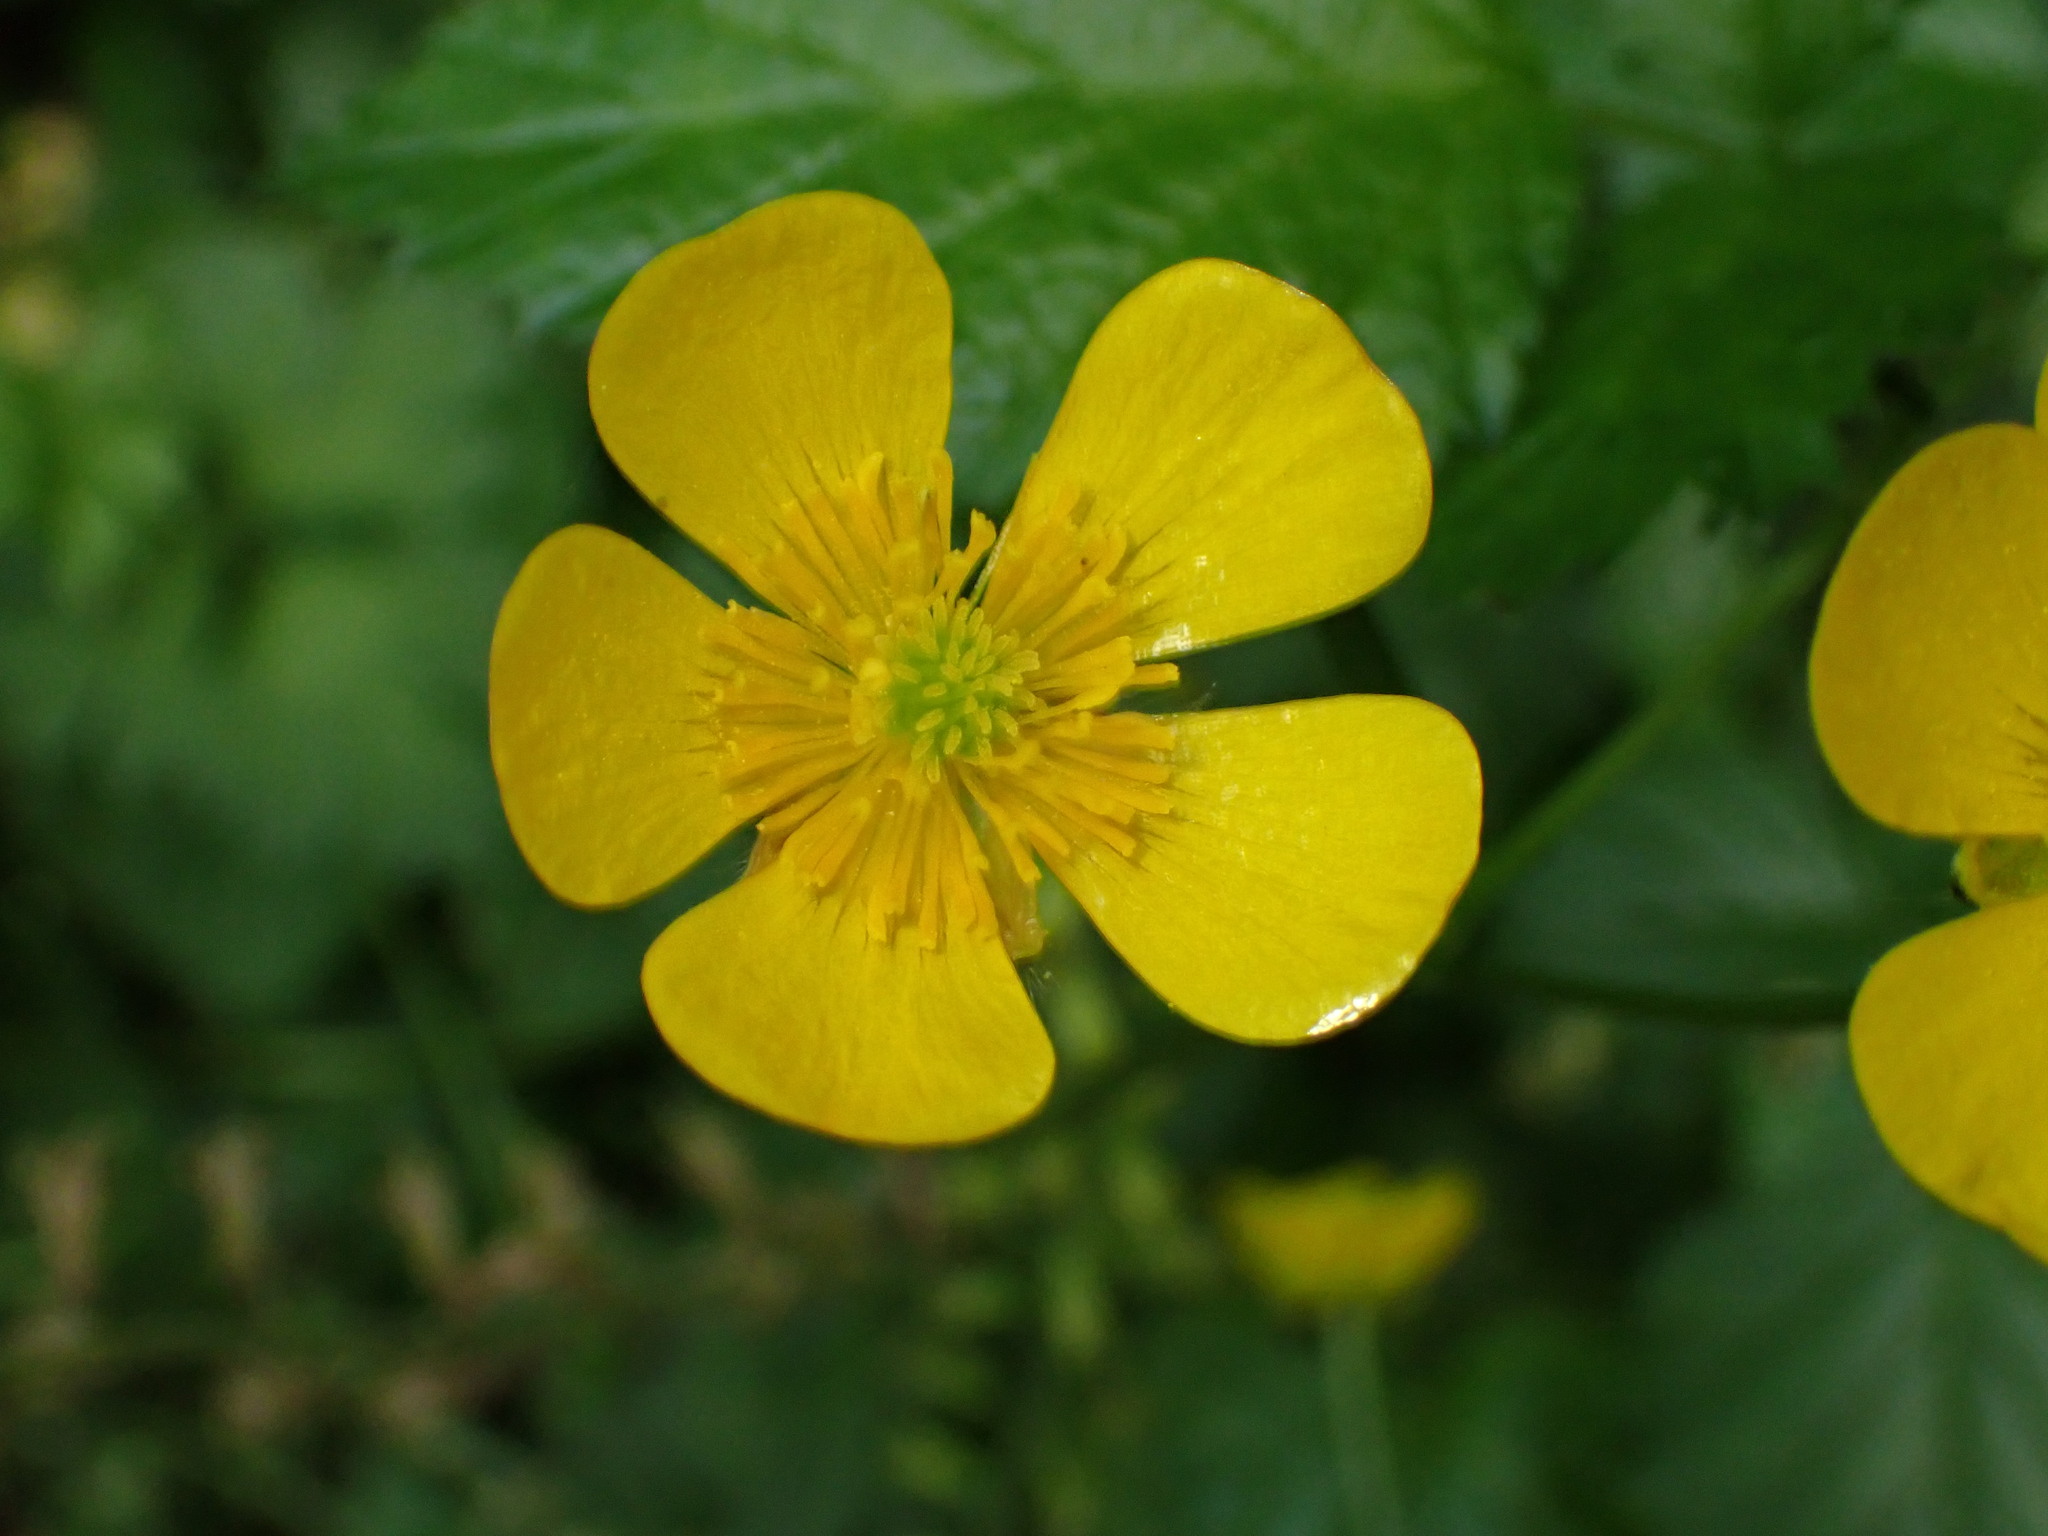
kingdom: Plantae
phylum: Tracheophyta
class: Magnoliopsida
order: Ranunculales
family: Ranunculaceae
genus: Ranunculus
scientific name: Ranunculus repens
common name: Creeping buttercup
